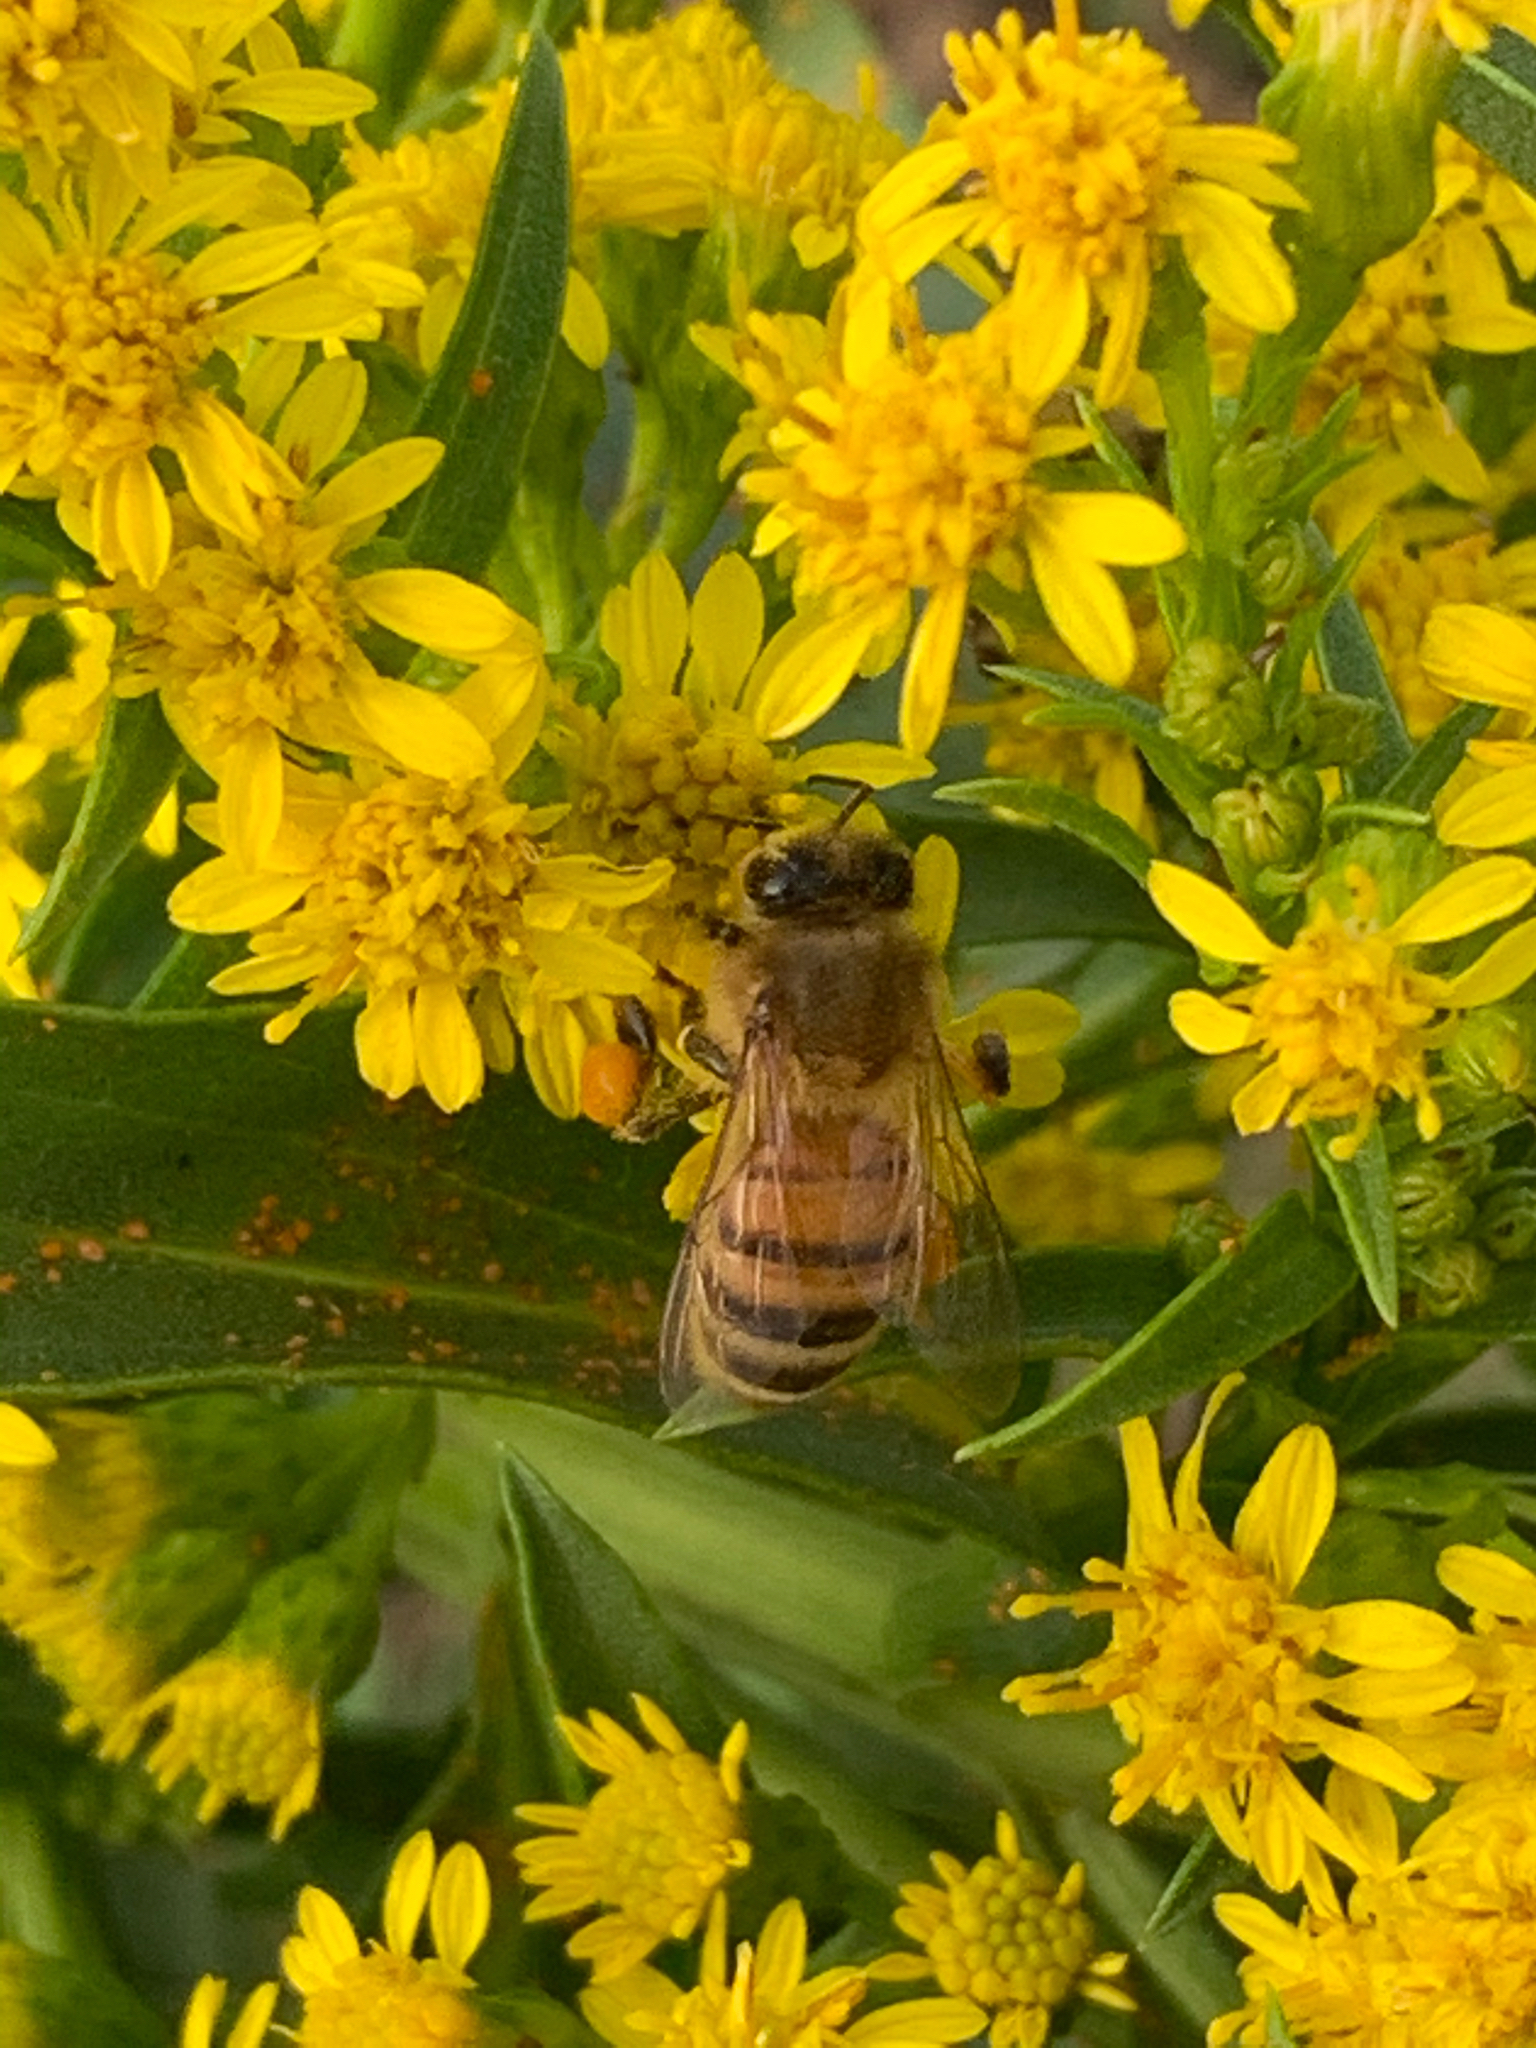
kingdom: Animalia
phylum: Arthropoda
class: Insecta
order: Hymenoptera
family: Apidae
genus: Apis
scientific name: Apis mellifera
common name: Honey bee
